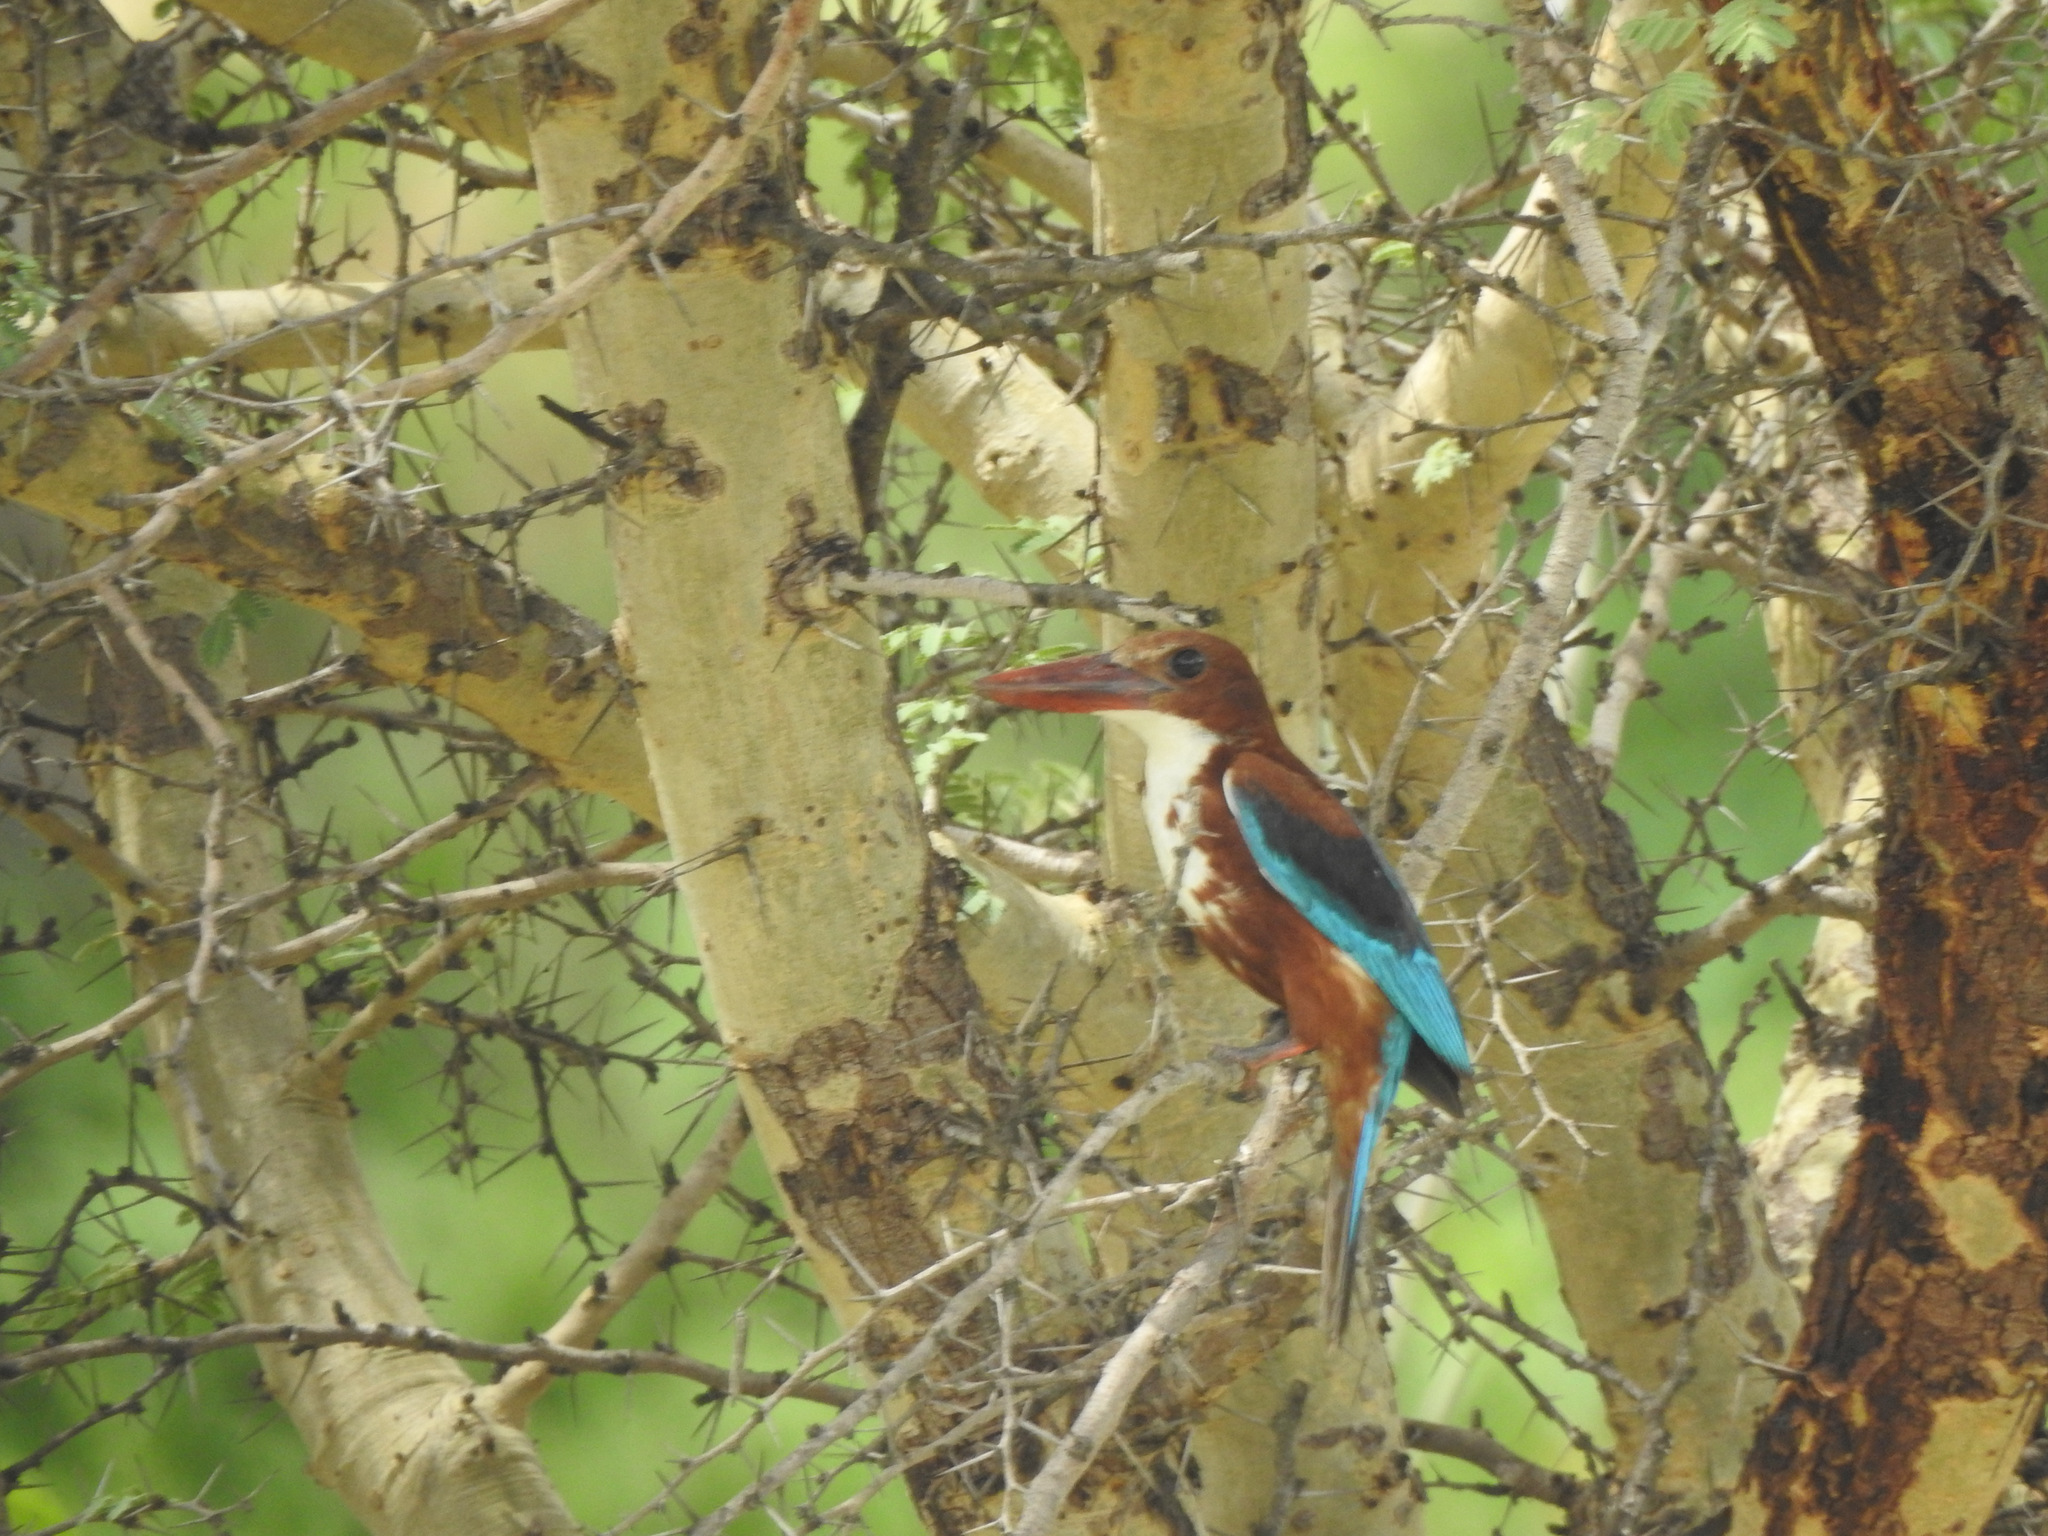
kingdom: Animalia
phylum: Chordata
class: Aves
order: Coraciiformes
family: Alcedinidae
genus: Halcyon
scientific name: Halcyon smyrnensis
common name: White-throated kingfisher
